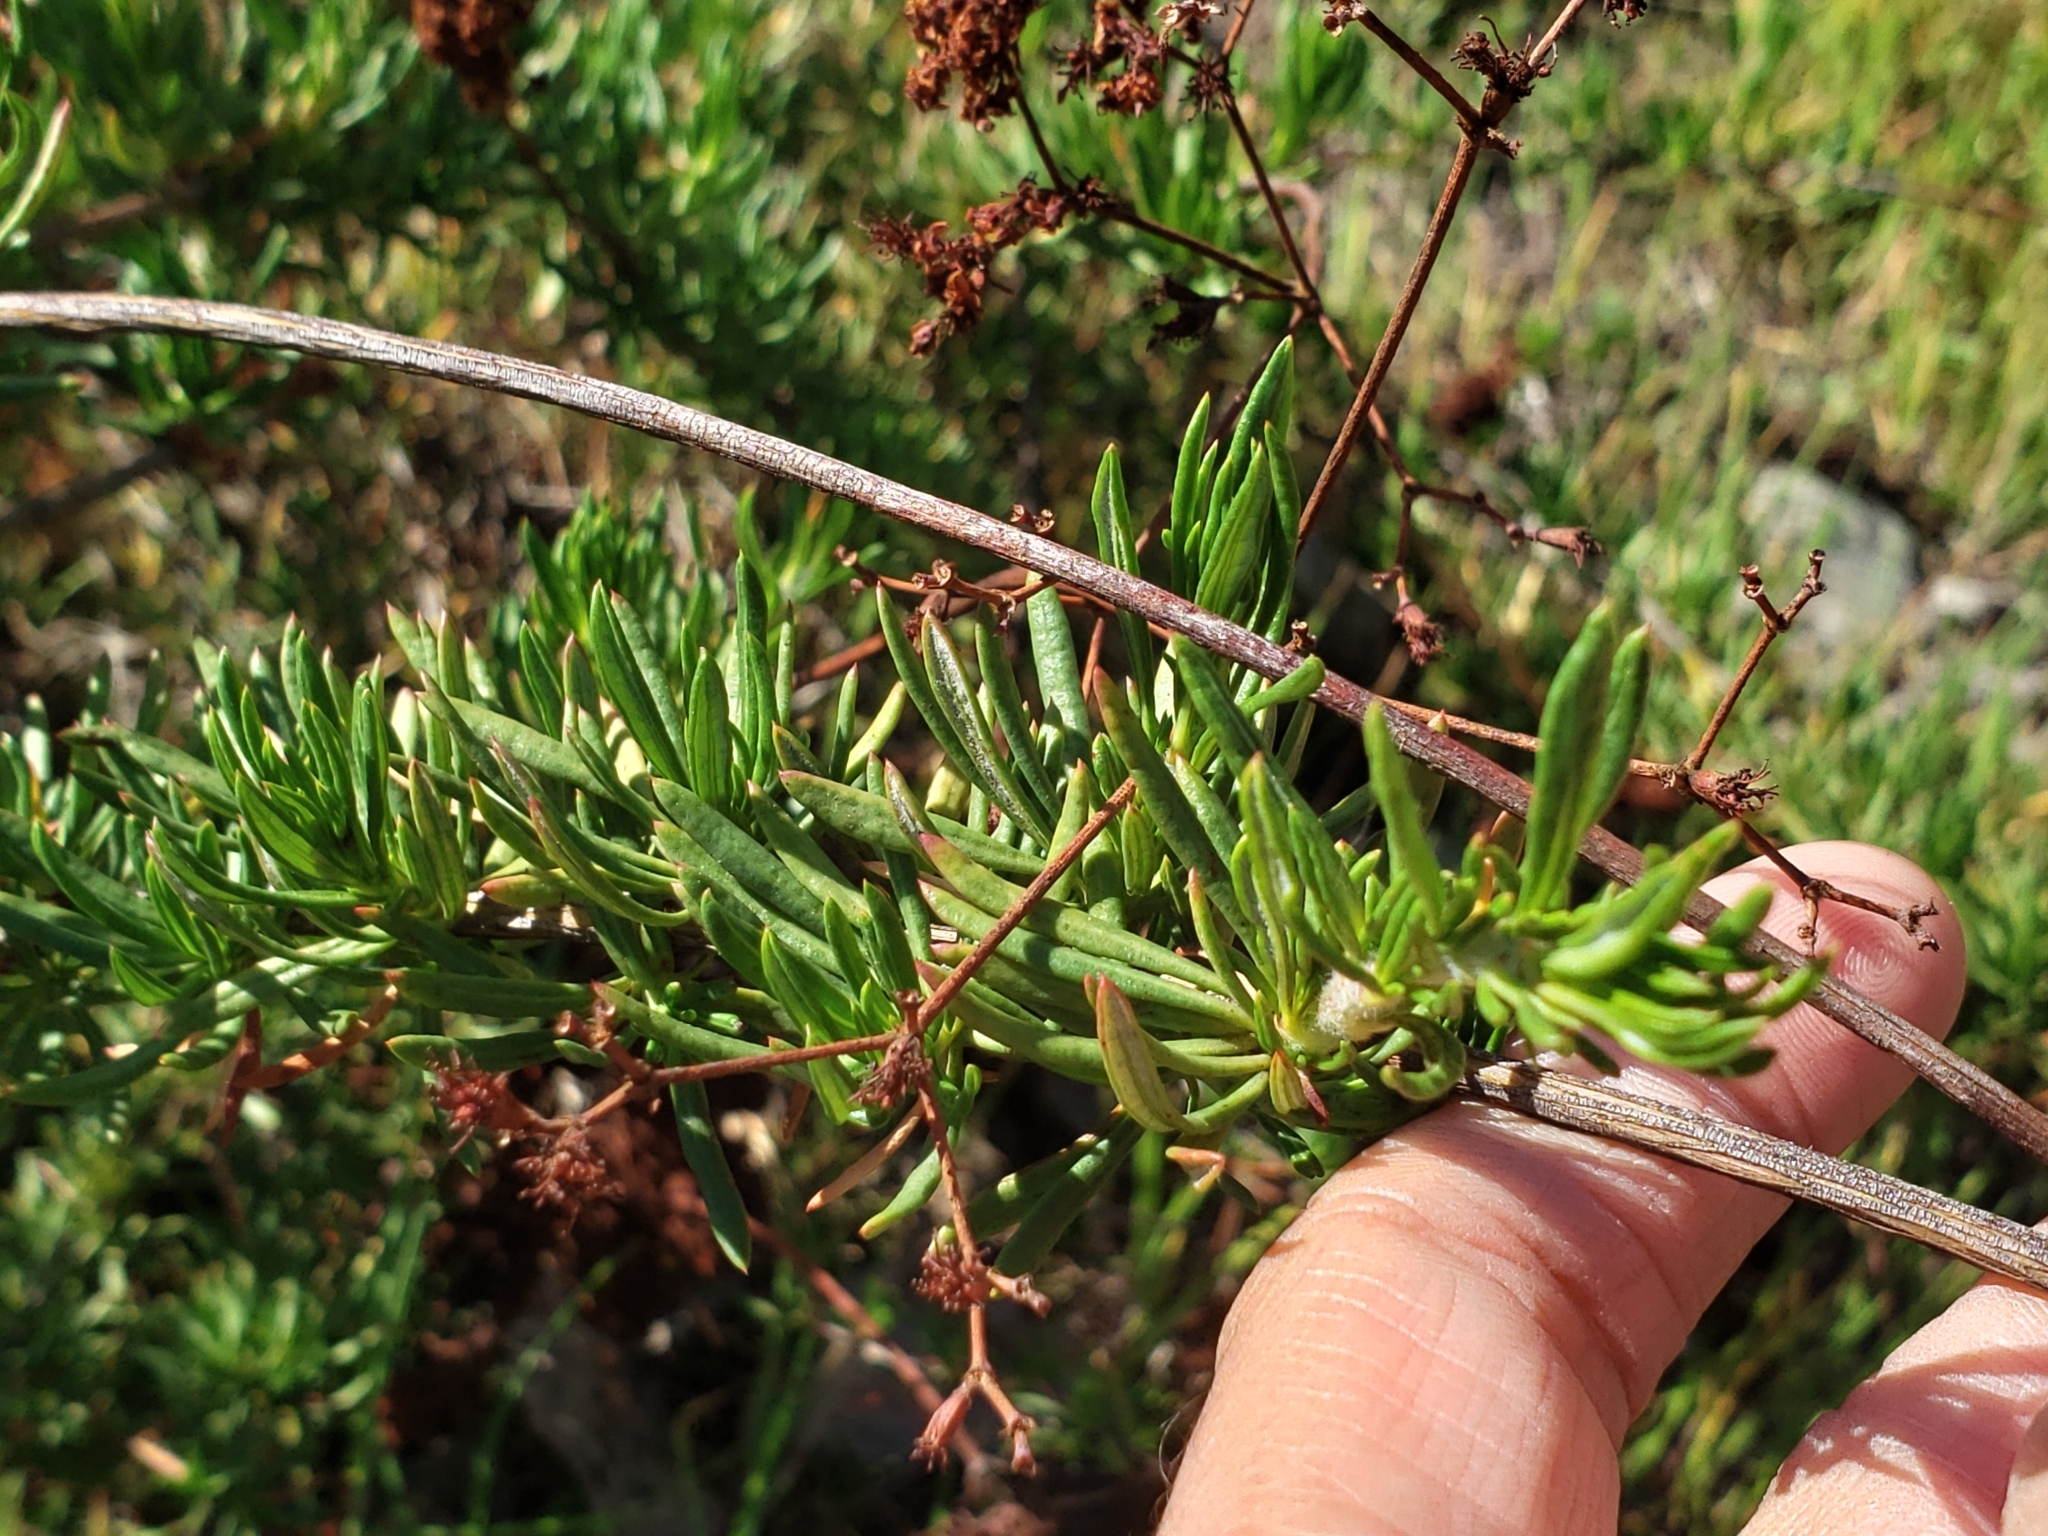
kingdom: Plantae
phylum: Tracheophyta
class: Magnoliopsida
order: Caryophyllales
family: Polygonaceae
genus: Eriogonum
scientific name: Eriogonum fasciculatum
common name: California wild buckwheat
